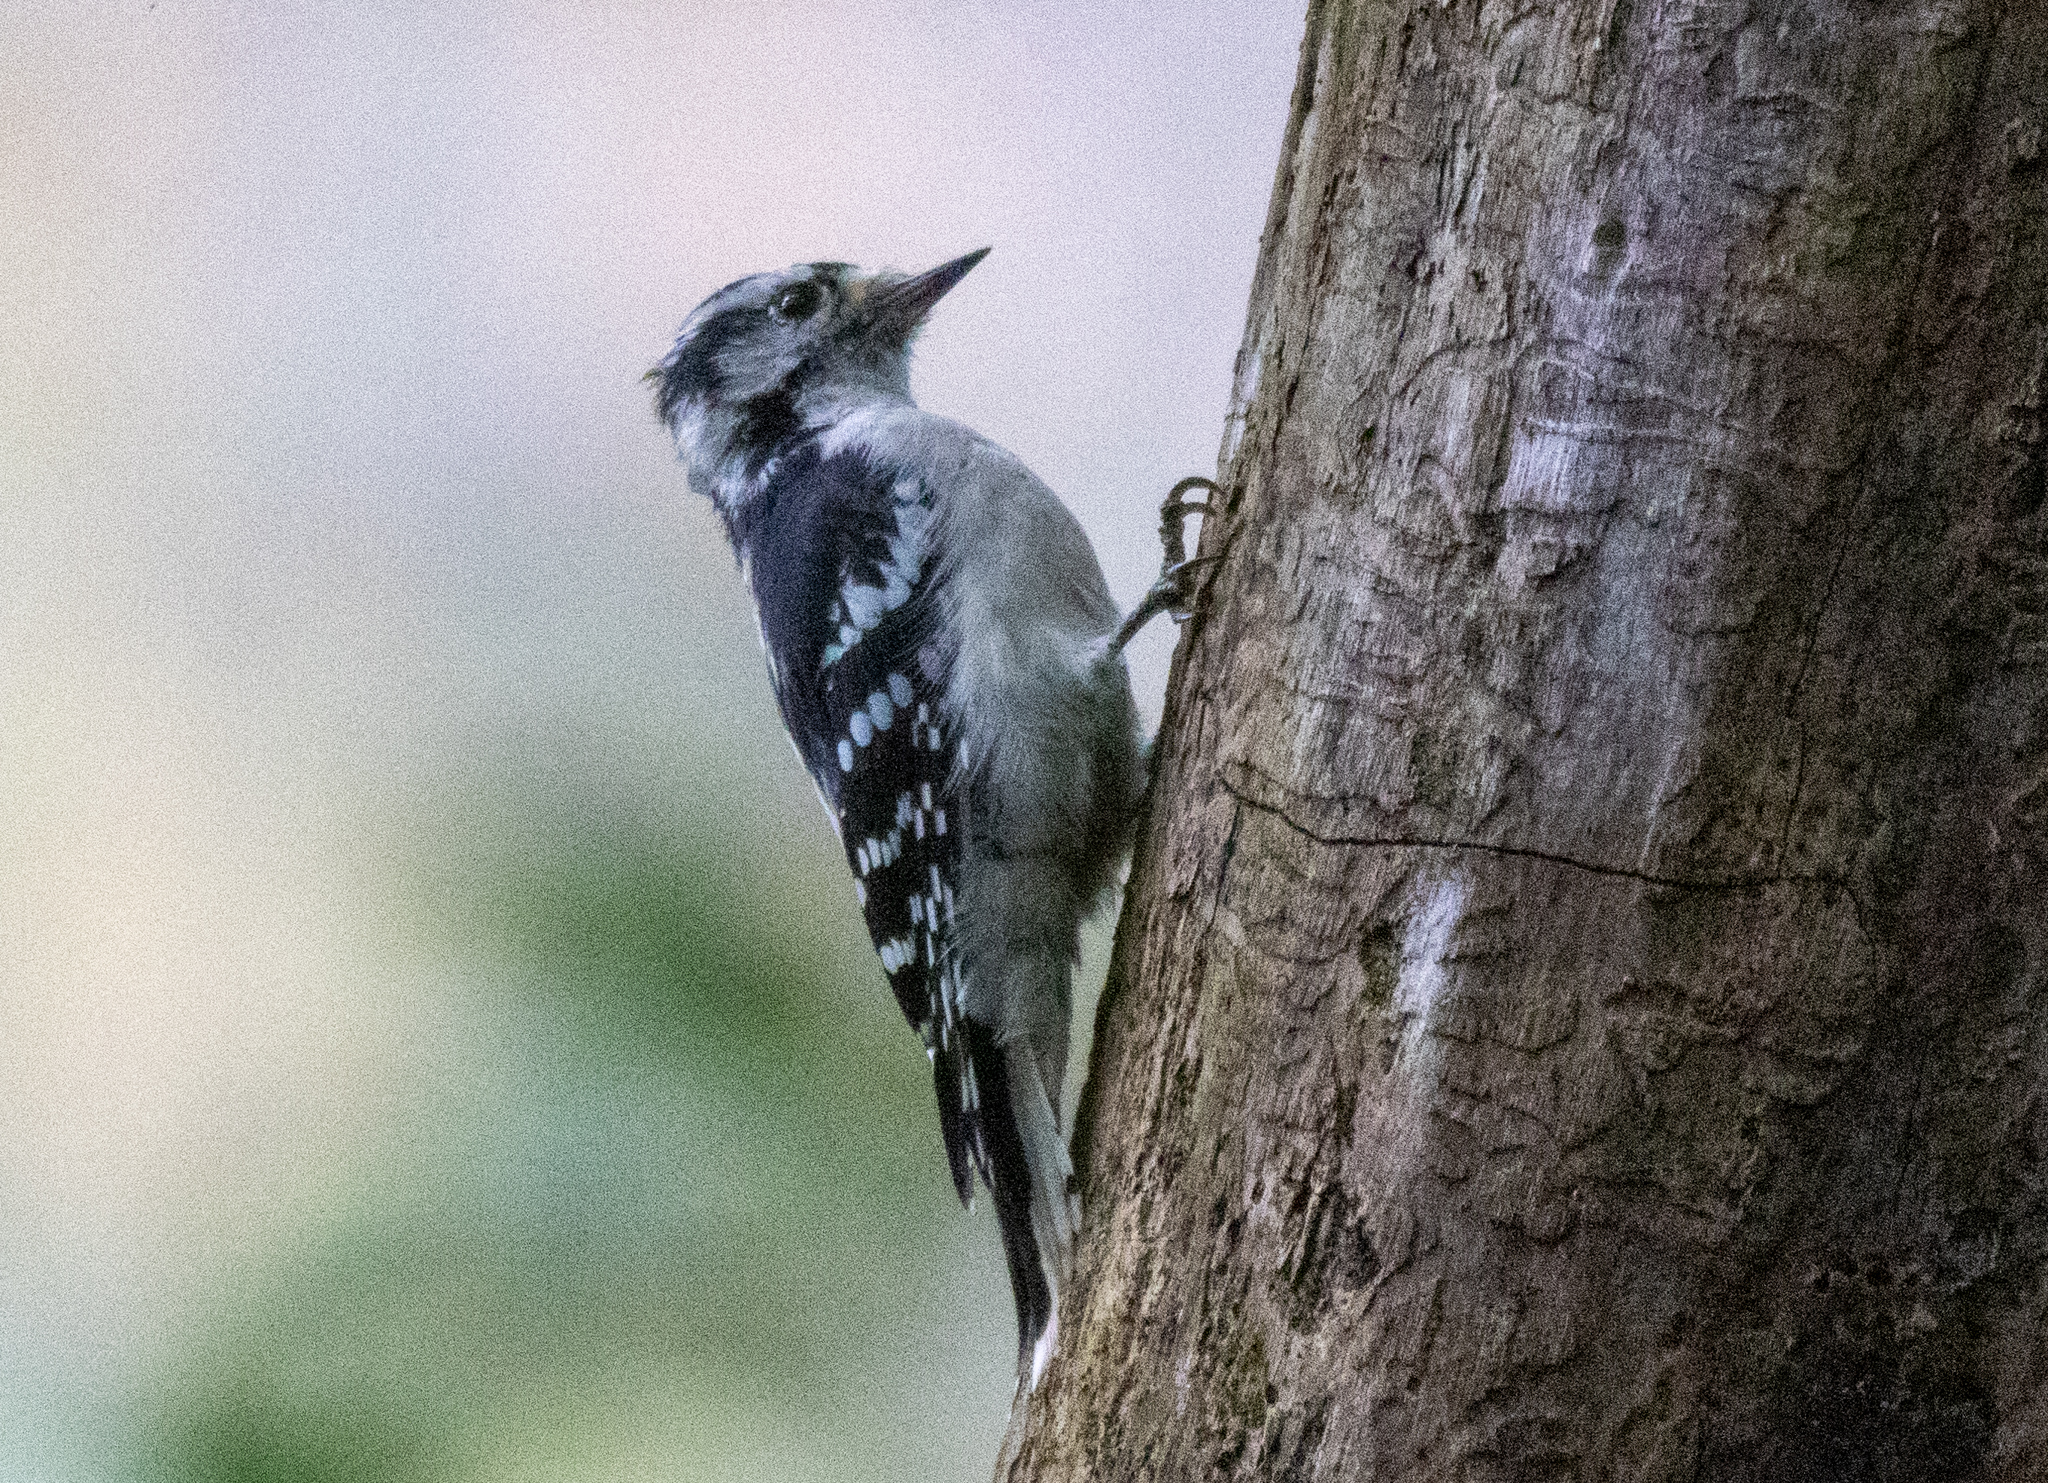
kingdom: Animalia
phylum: Chordata
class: Aves
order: Piciformes
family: Picidae
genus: Dryobates
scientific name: Dryobates pubescens
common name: Downy woodpecker
